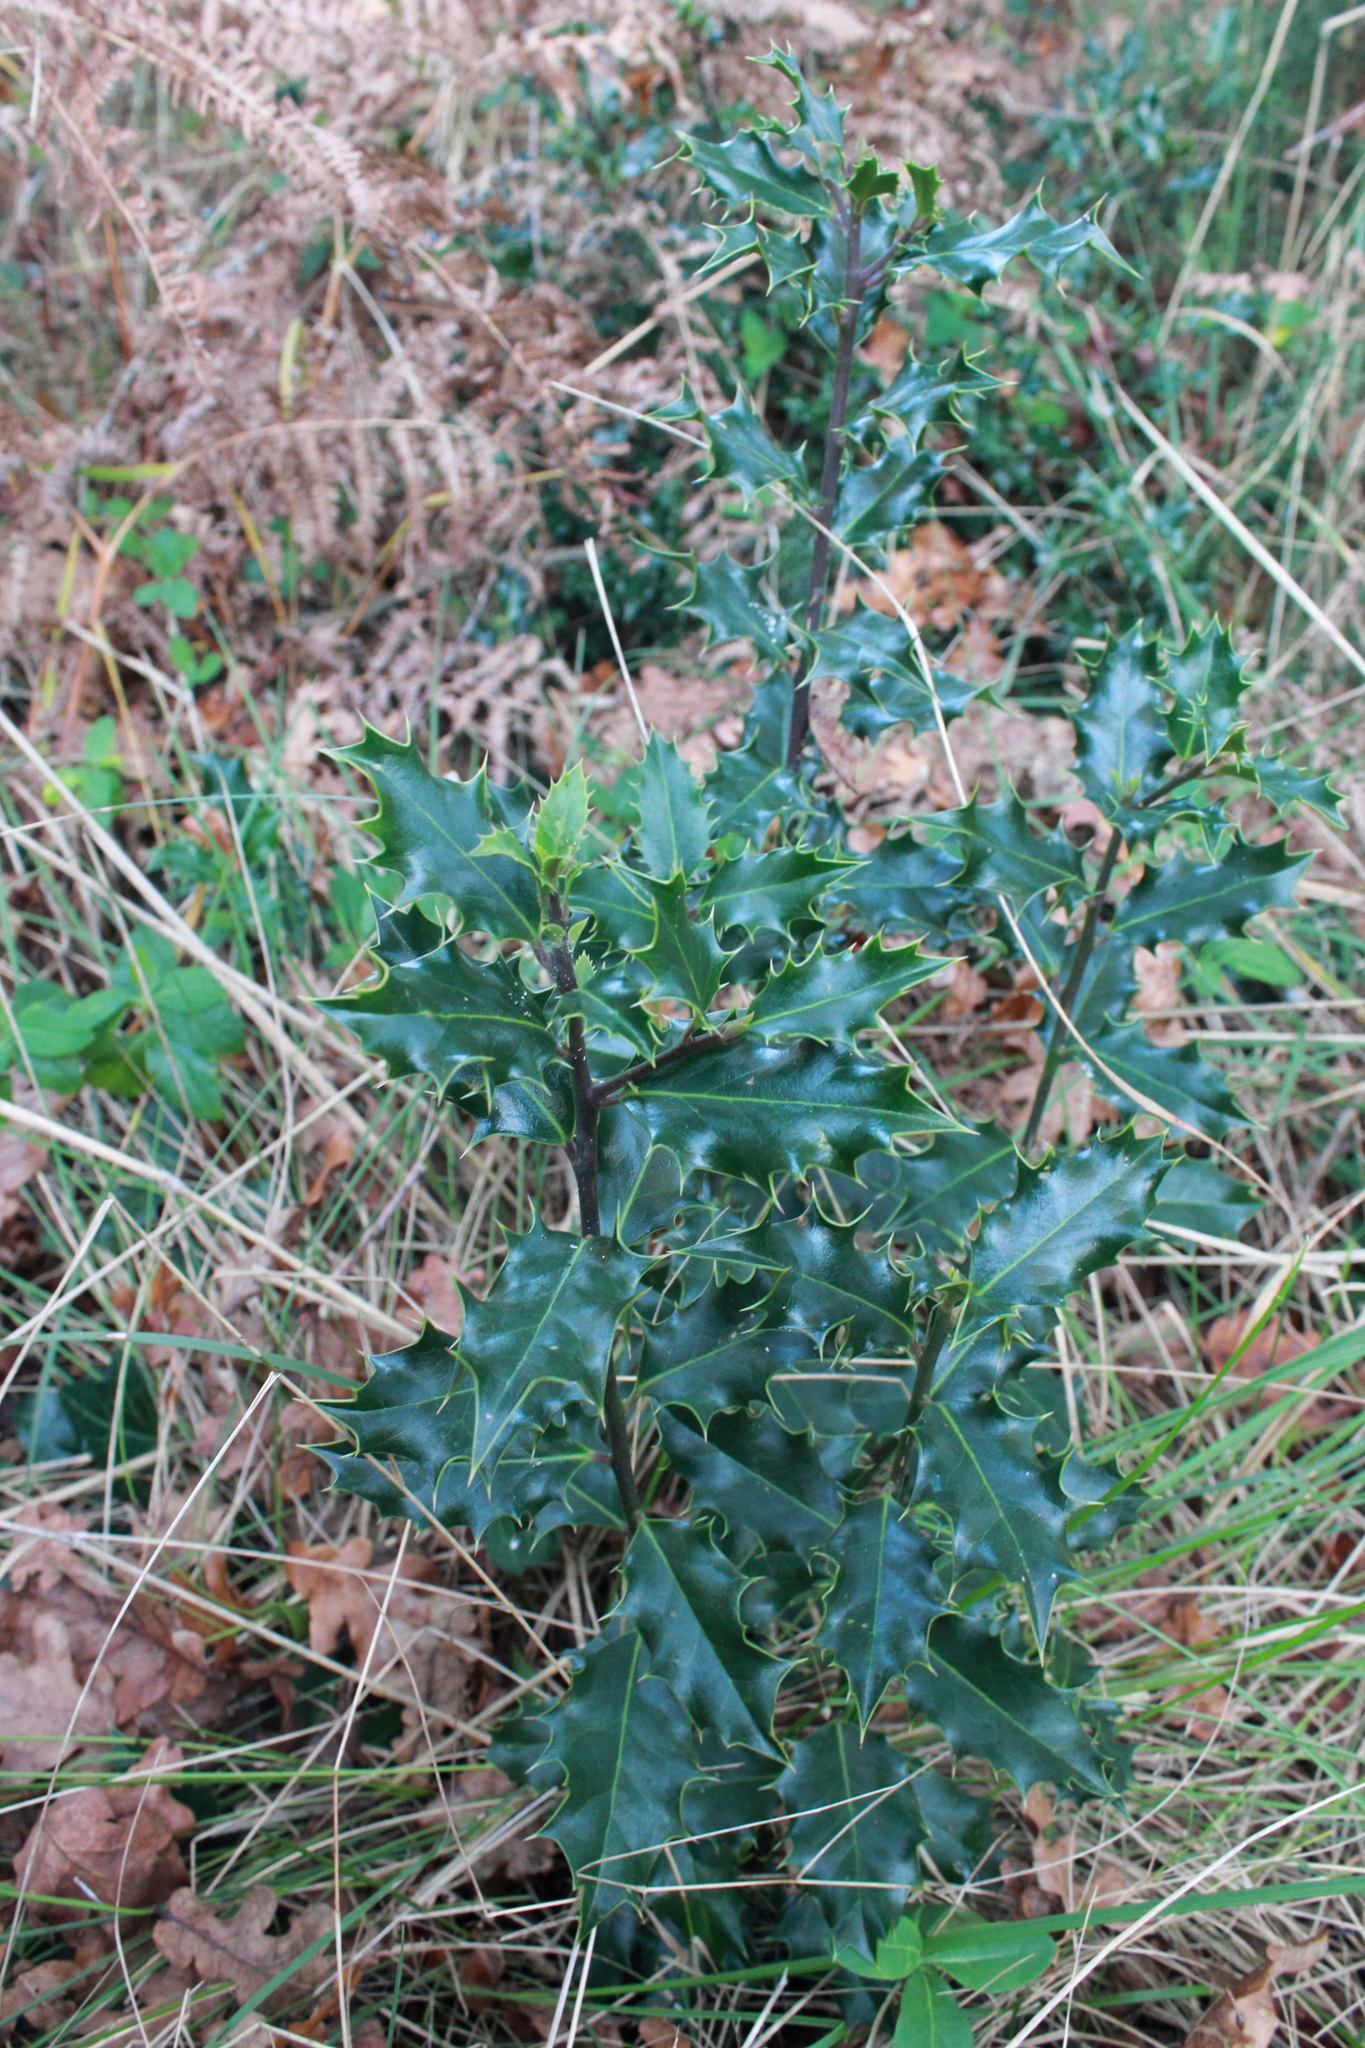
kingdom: Plantae
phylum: Tracheophyta
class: Magnoliopsida
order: Aquifoliales
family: Aquifoliaceae
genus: Ilex
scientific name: Ilex aquifolium
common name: English holly
